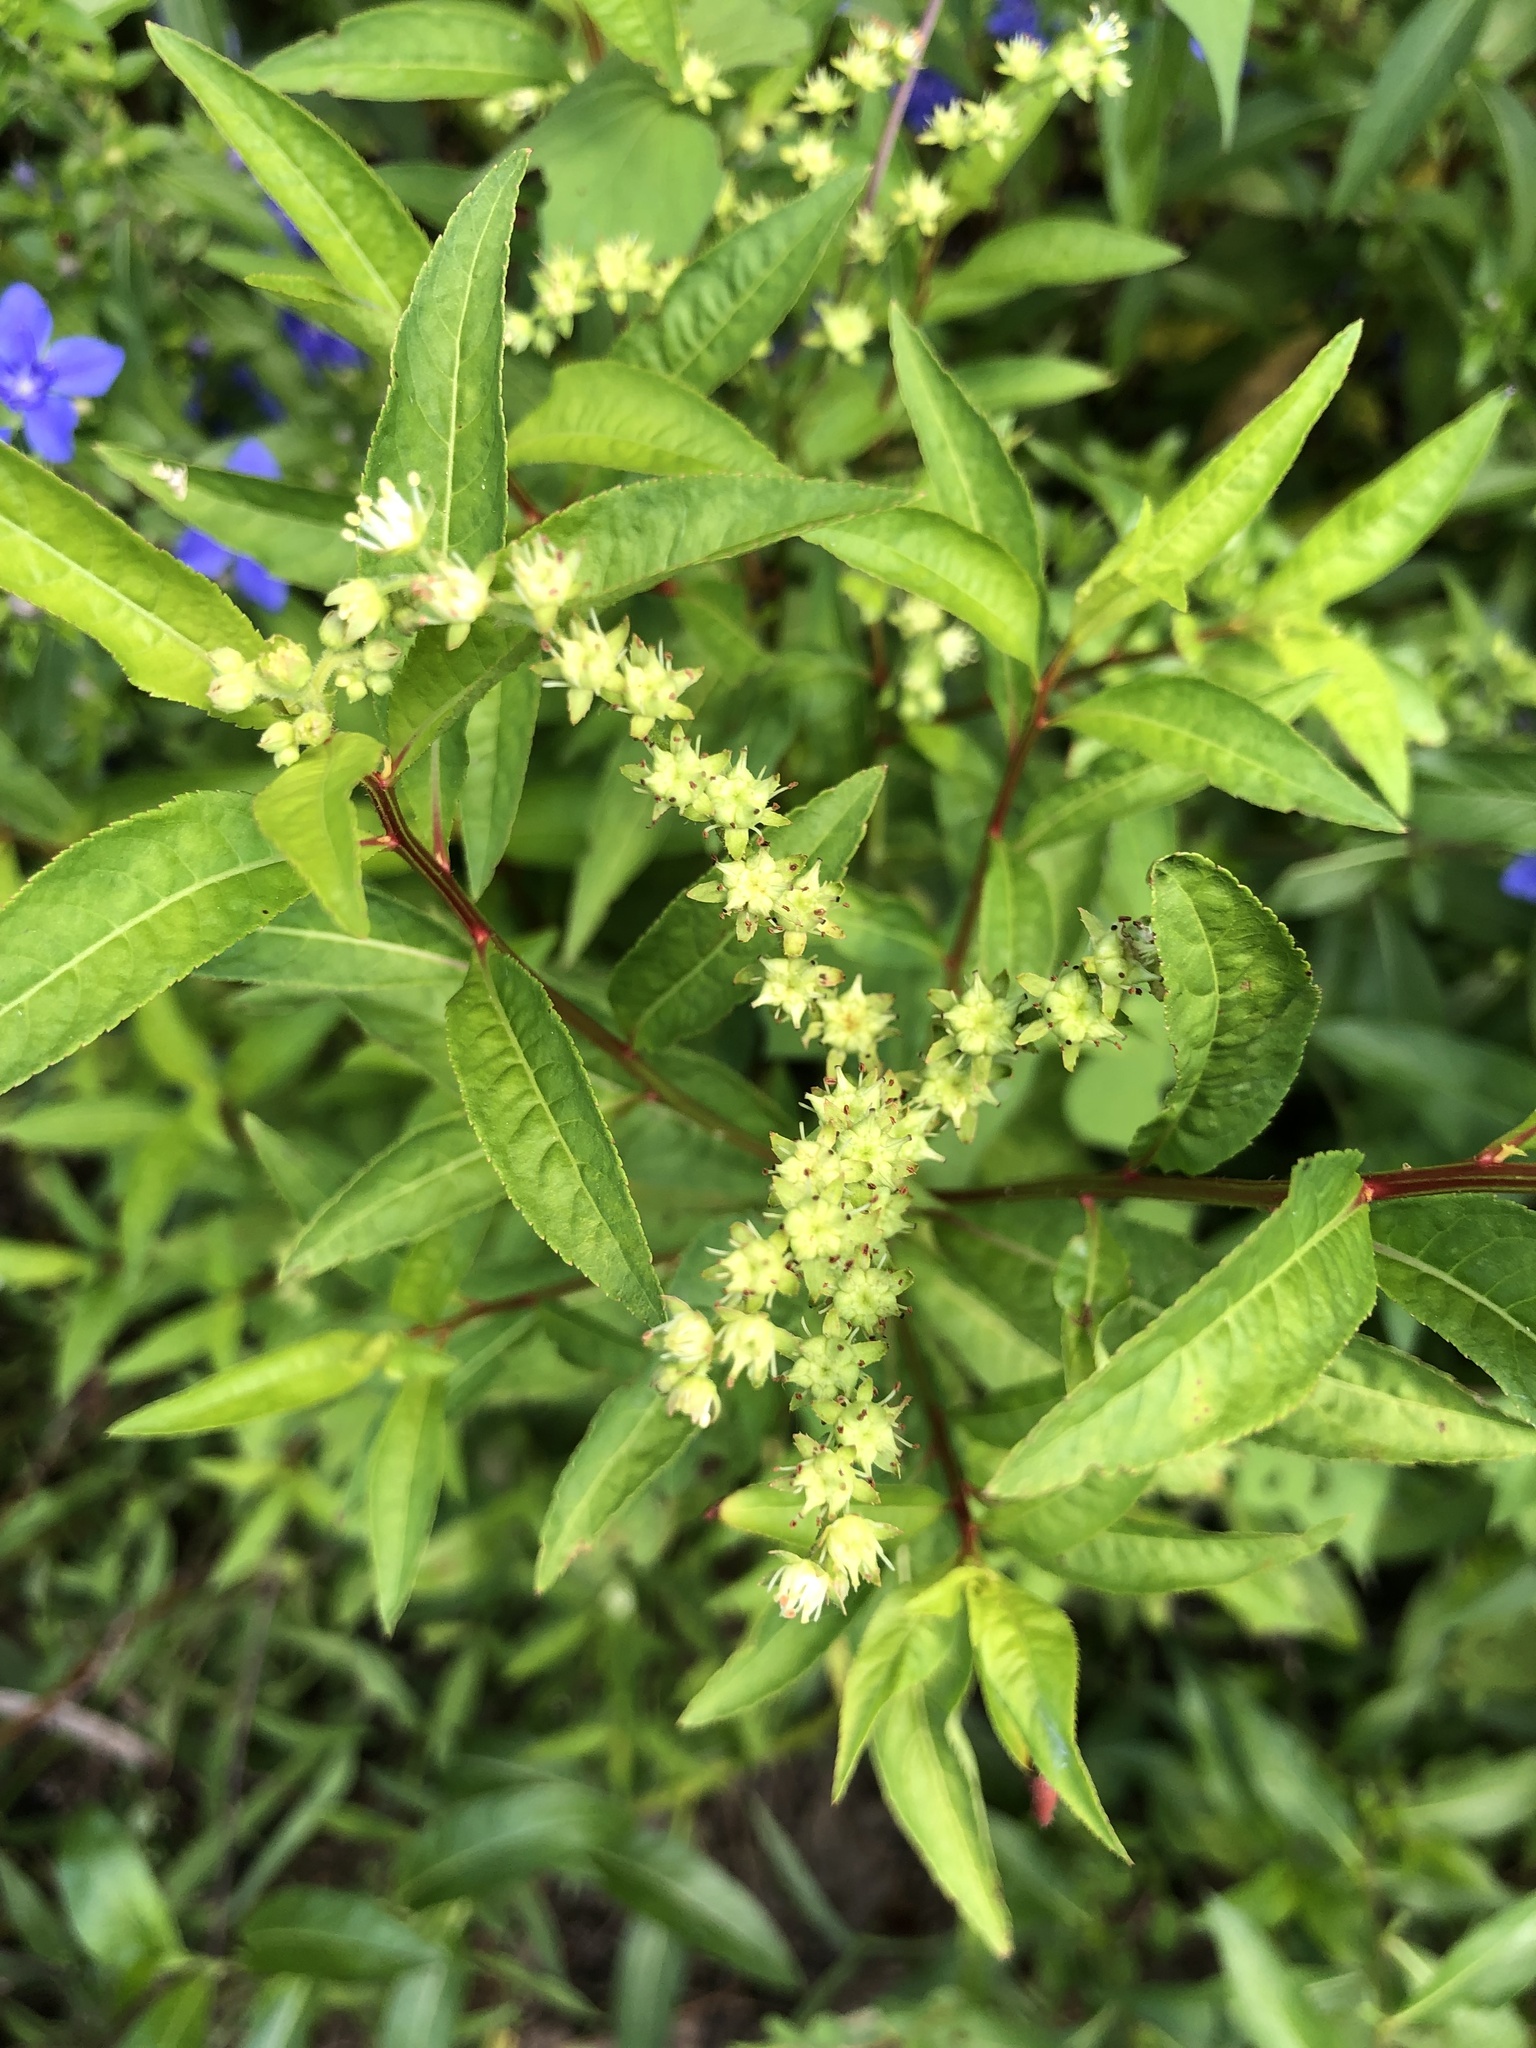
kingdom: Plantae
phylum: Tracheophyta
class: Magnoliopsida
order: Saxifragales
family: Penthoraceae
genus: Penthorum
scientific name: Penthorum sedoides
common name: Ditch stonecrop
